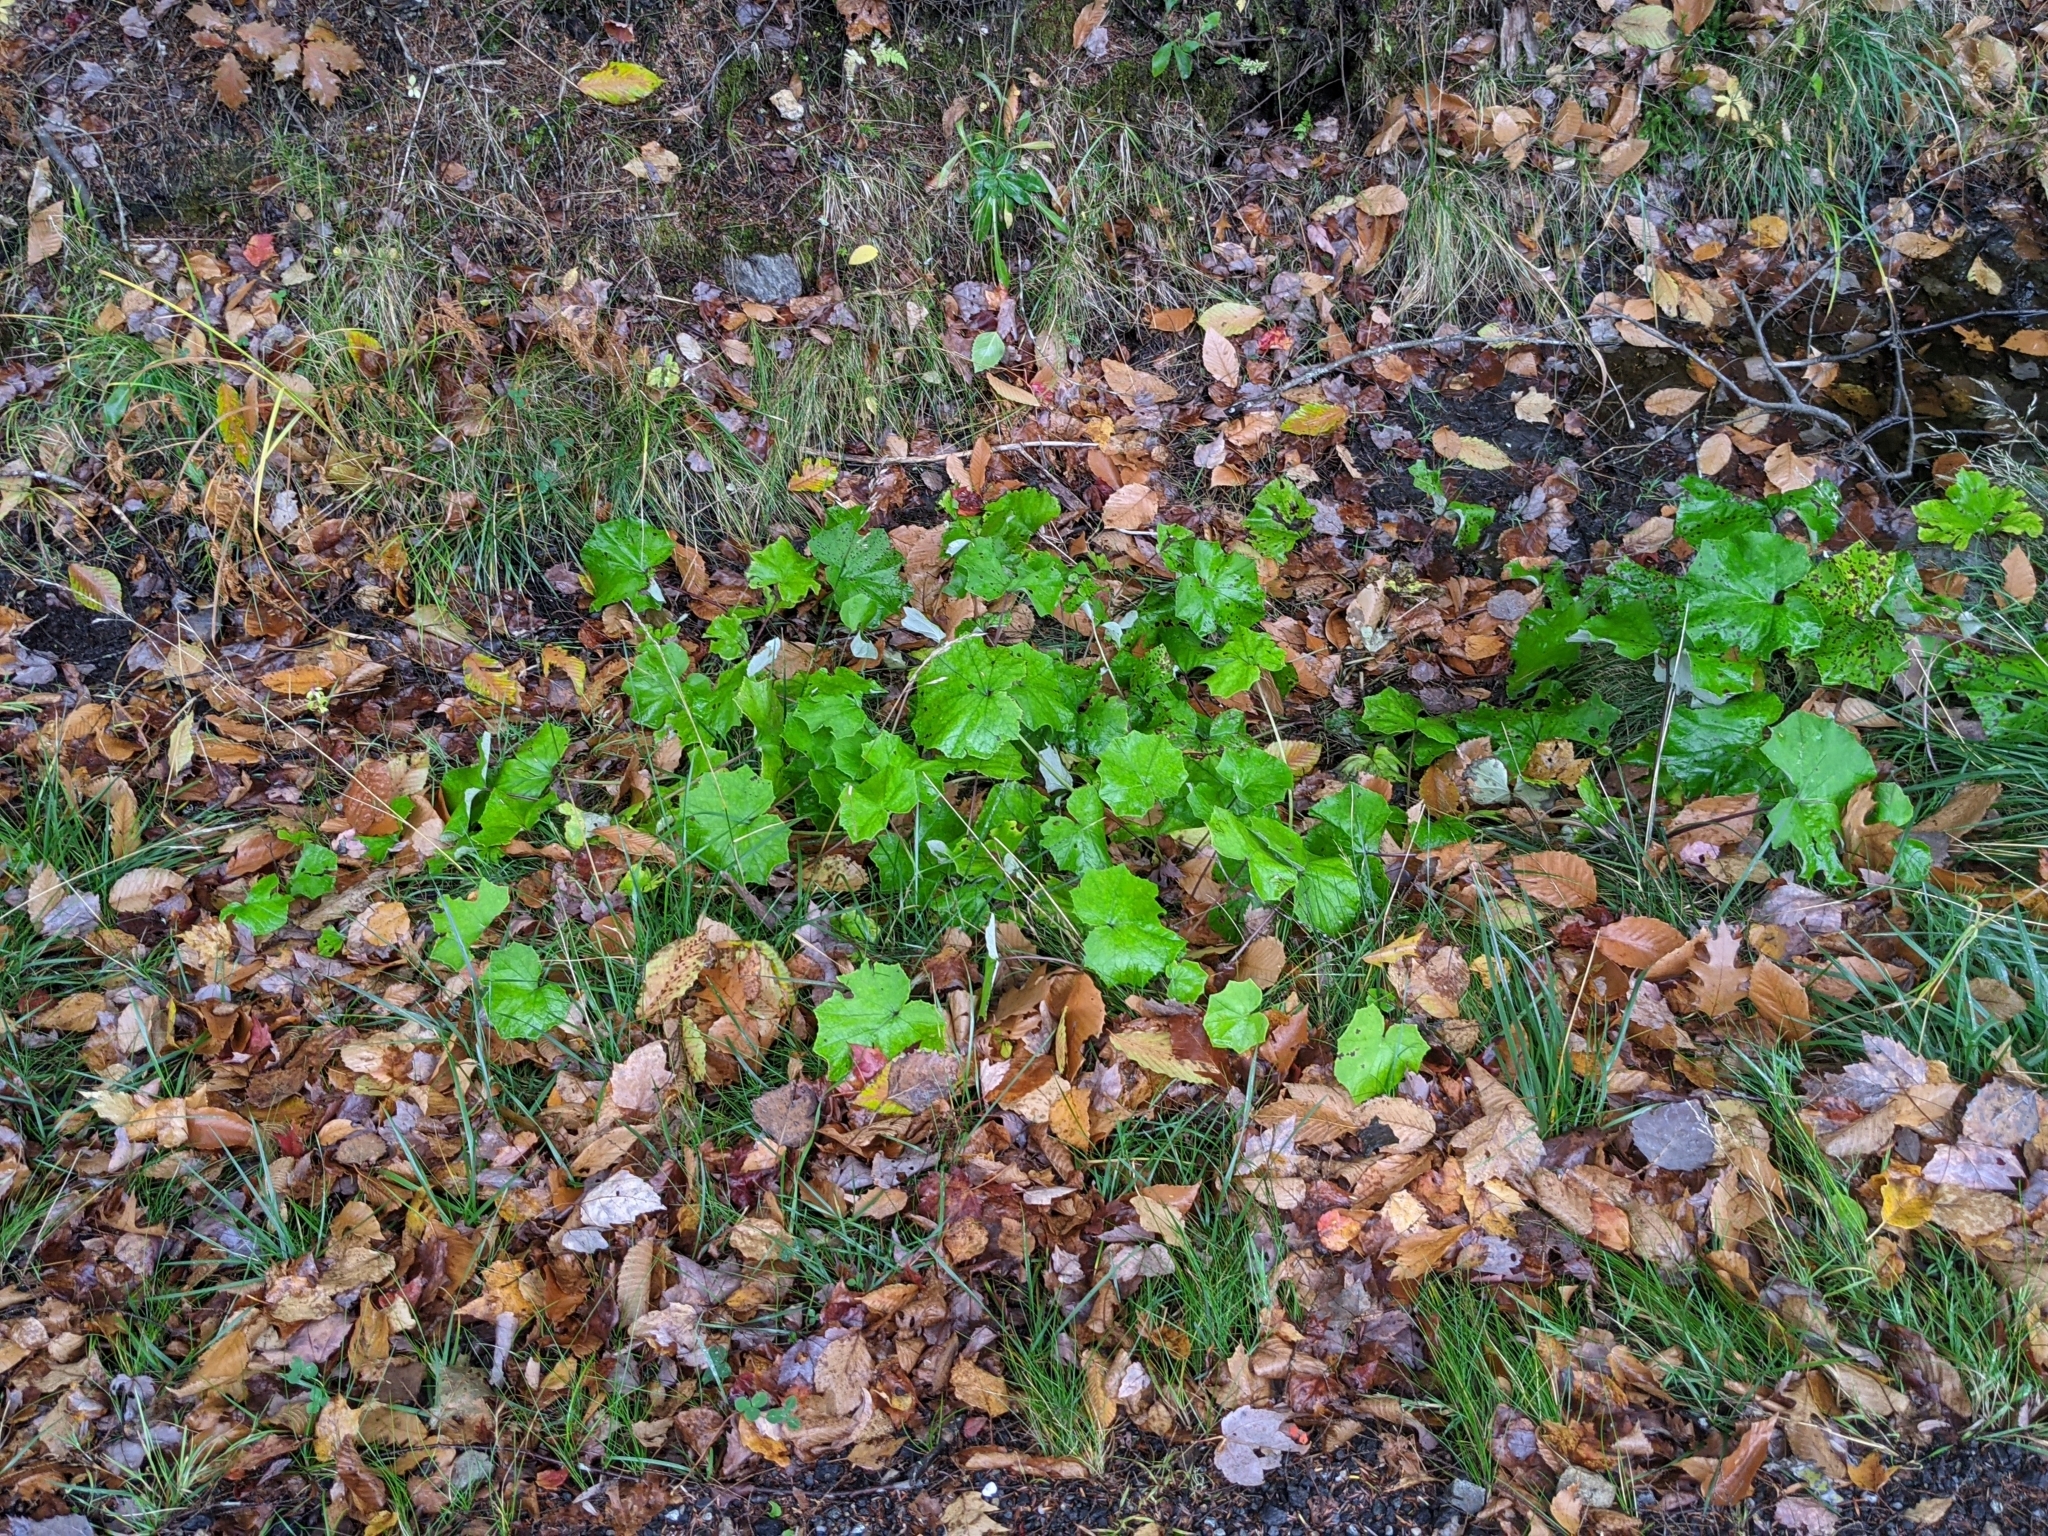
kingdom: Plantae
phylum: Tracheophyta
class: Magnoliopsida
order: Asterales
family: Asteraceae
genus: Tussilago
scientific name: Tussilago farfara
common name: Coltsfoot
